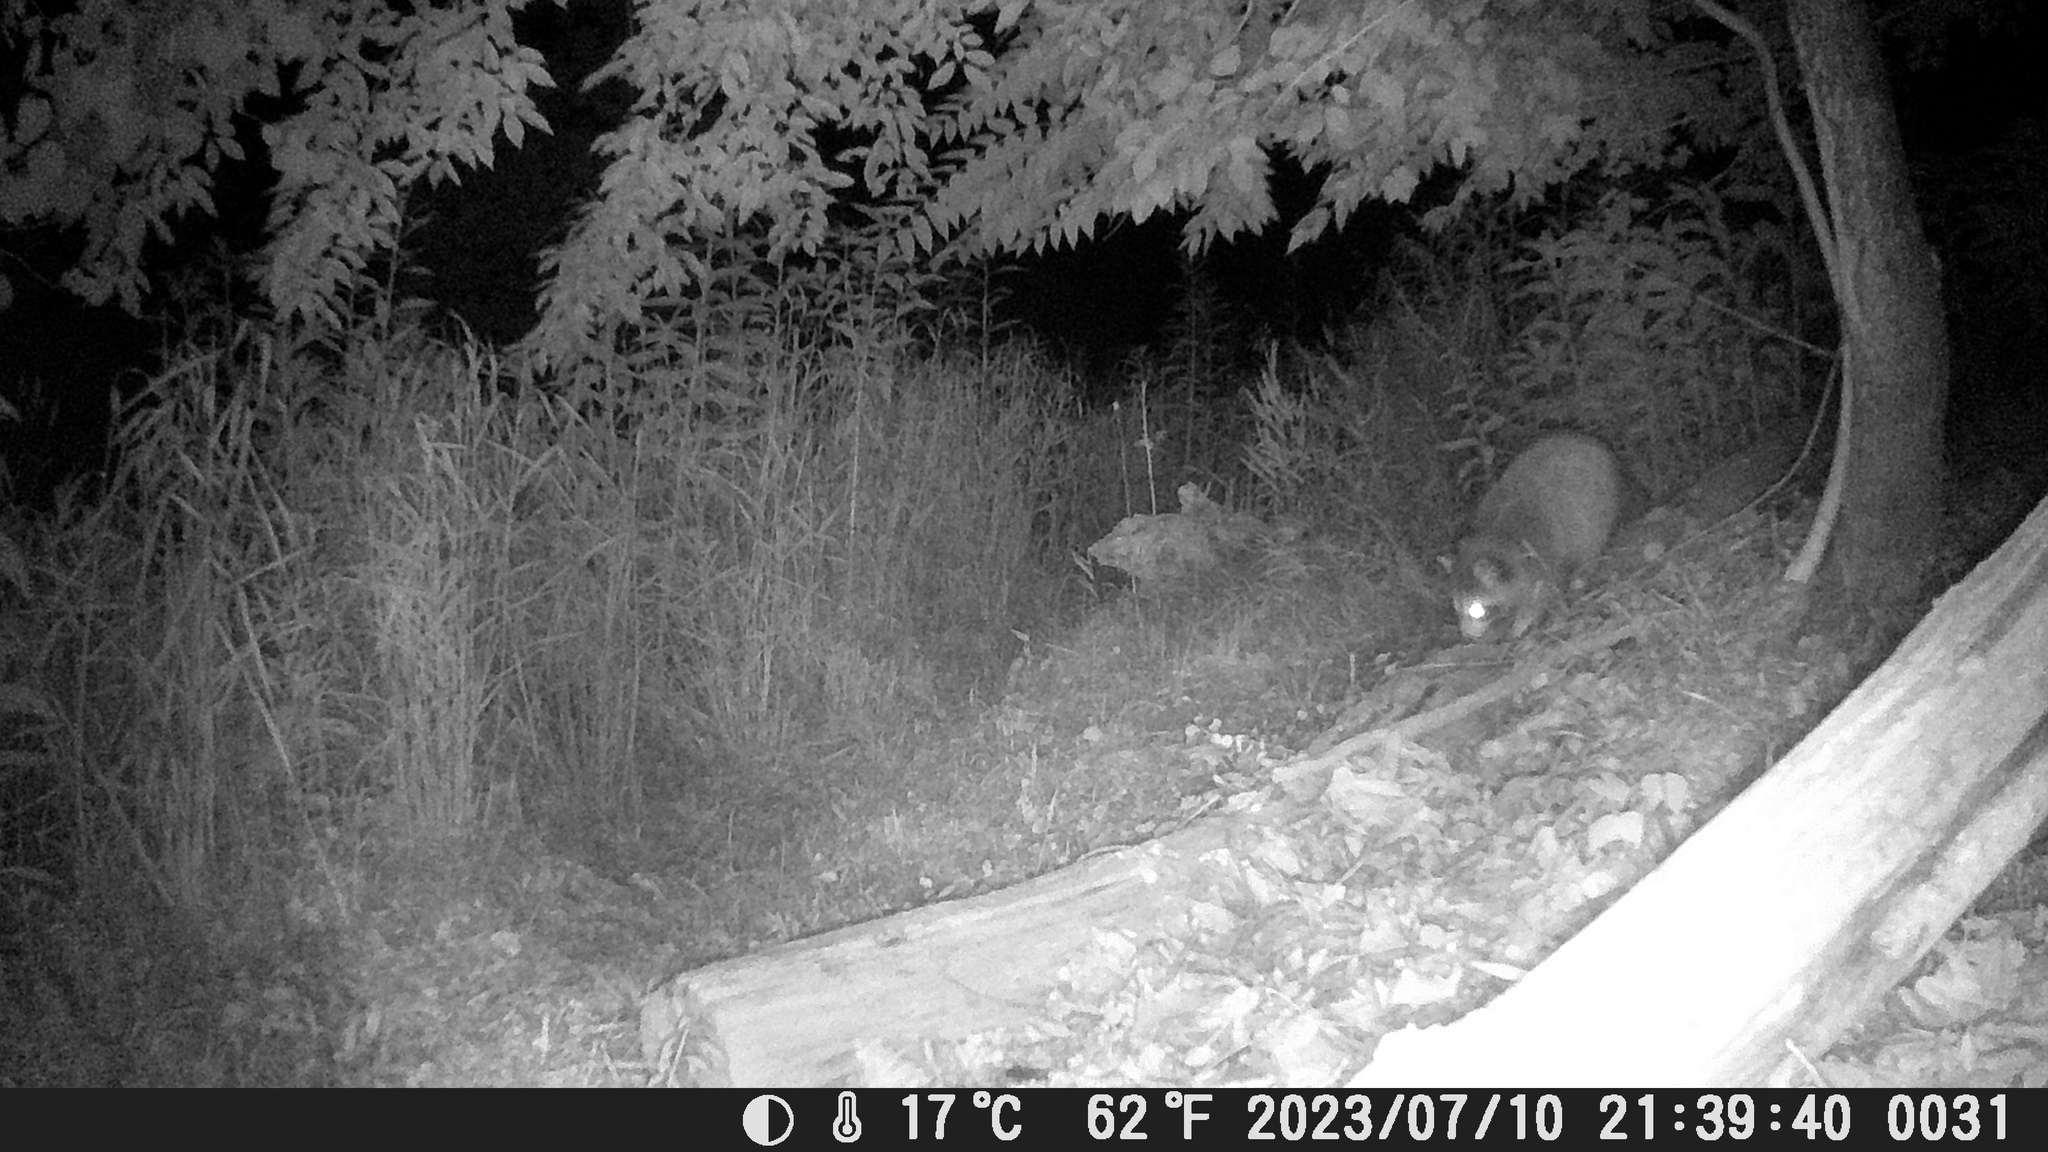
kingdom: Animalia
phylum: Chordata
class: Mammalia
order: Carnivora
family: Procyonidae
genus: Procyon
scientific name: Procyon lotor
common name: Raccoon
